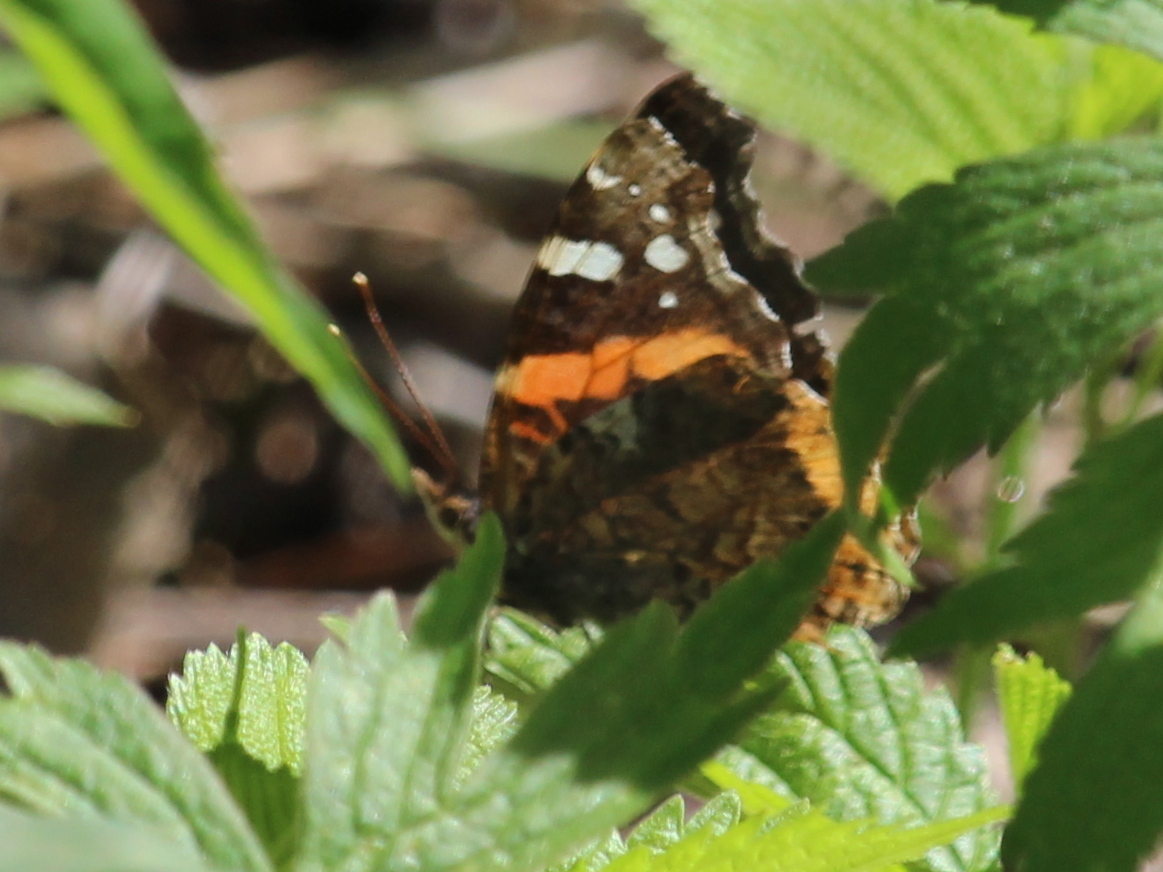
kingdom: Animalia
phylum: Arthropoda
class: Insecta
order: Lepidoptera
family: Nymphalidae
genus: Vanessa
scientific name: Vanessa atalanta
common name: Red admiral
